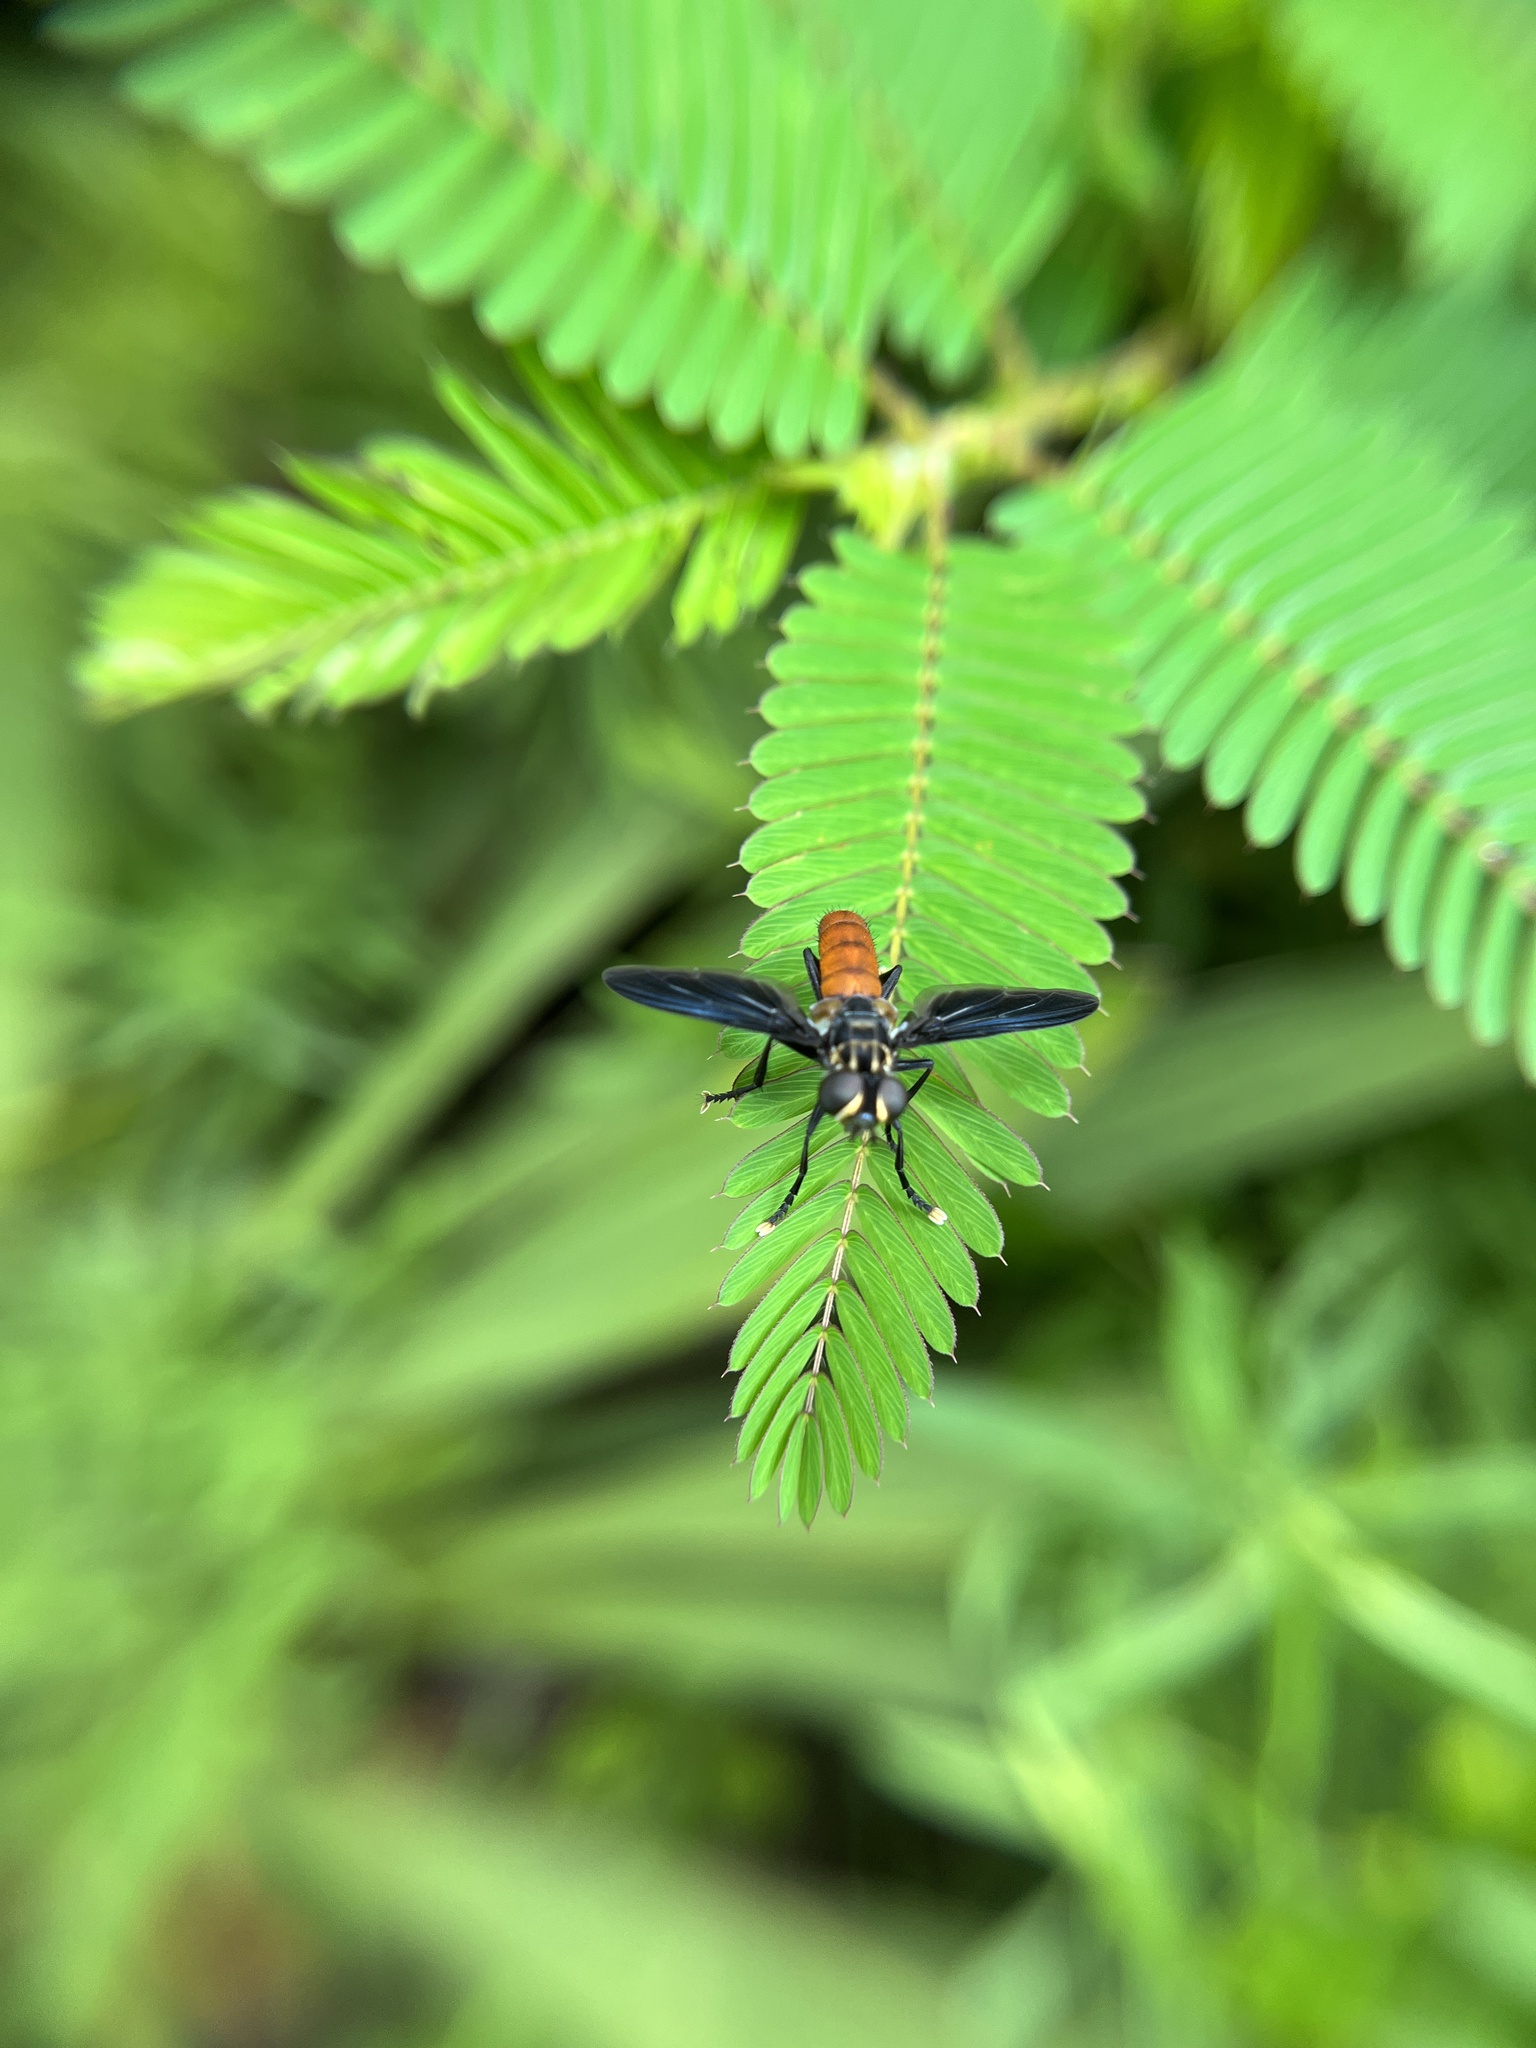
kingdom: Animalia
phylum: Arthropoda
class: Insecta
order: Diptera
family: Tachinidae
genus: Trichopoda
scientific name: Trichopoda pennipes
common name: Tachinid fly
